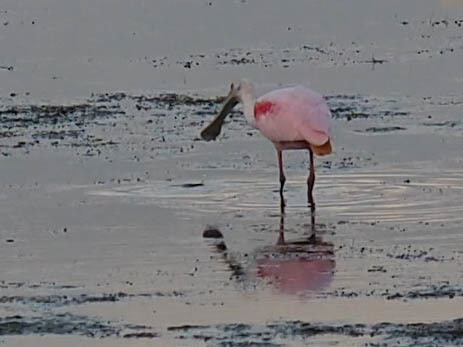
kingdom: Animalia
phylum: Chordata
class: Aves
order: Pelecaniformes
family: Threskiornithidae
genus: Platalea
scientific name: Platalea ajaja
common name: Roseate spoonbill
